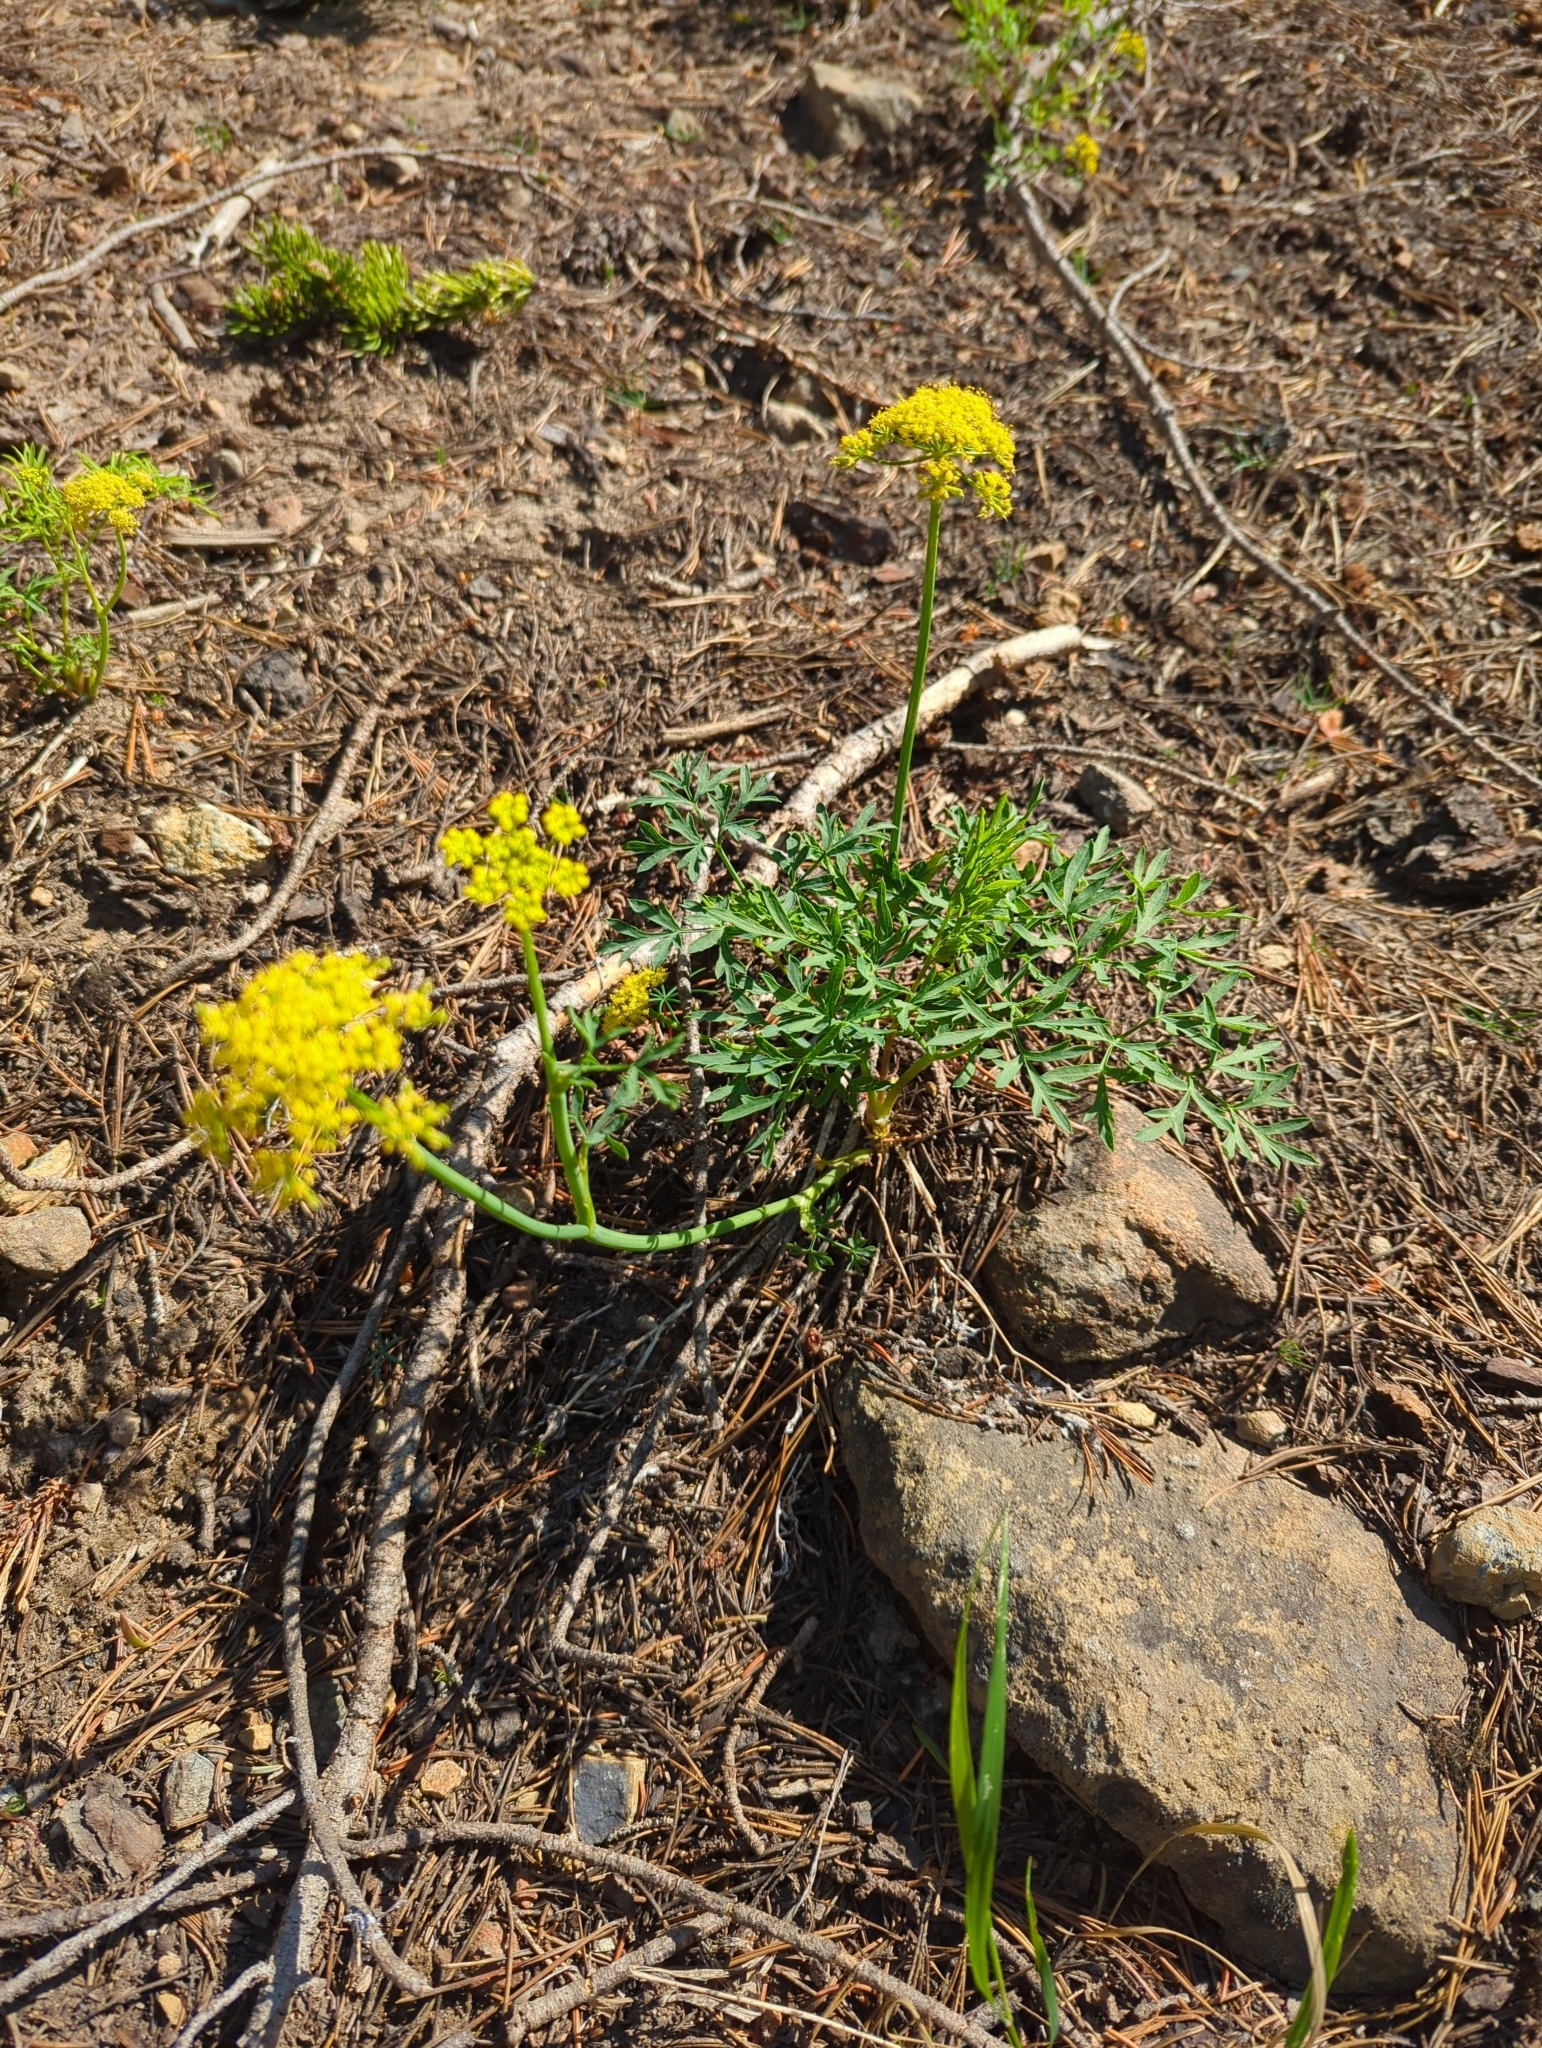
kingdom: Plantae
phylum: Tracheophyta
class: Magnoliopsida
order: Apiales
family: Apiaceae
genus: Lomatium
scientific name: Lomatium brandegeei
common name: Brandegee's desert-parsley
